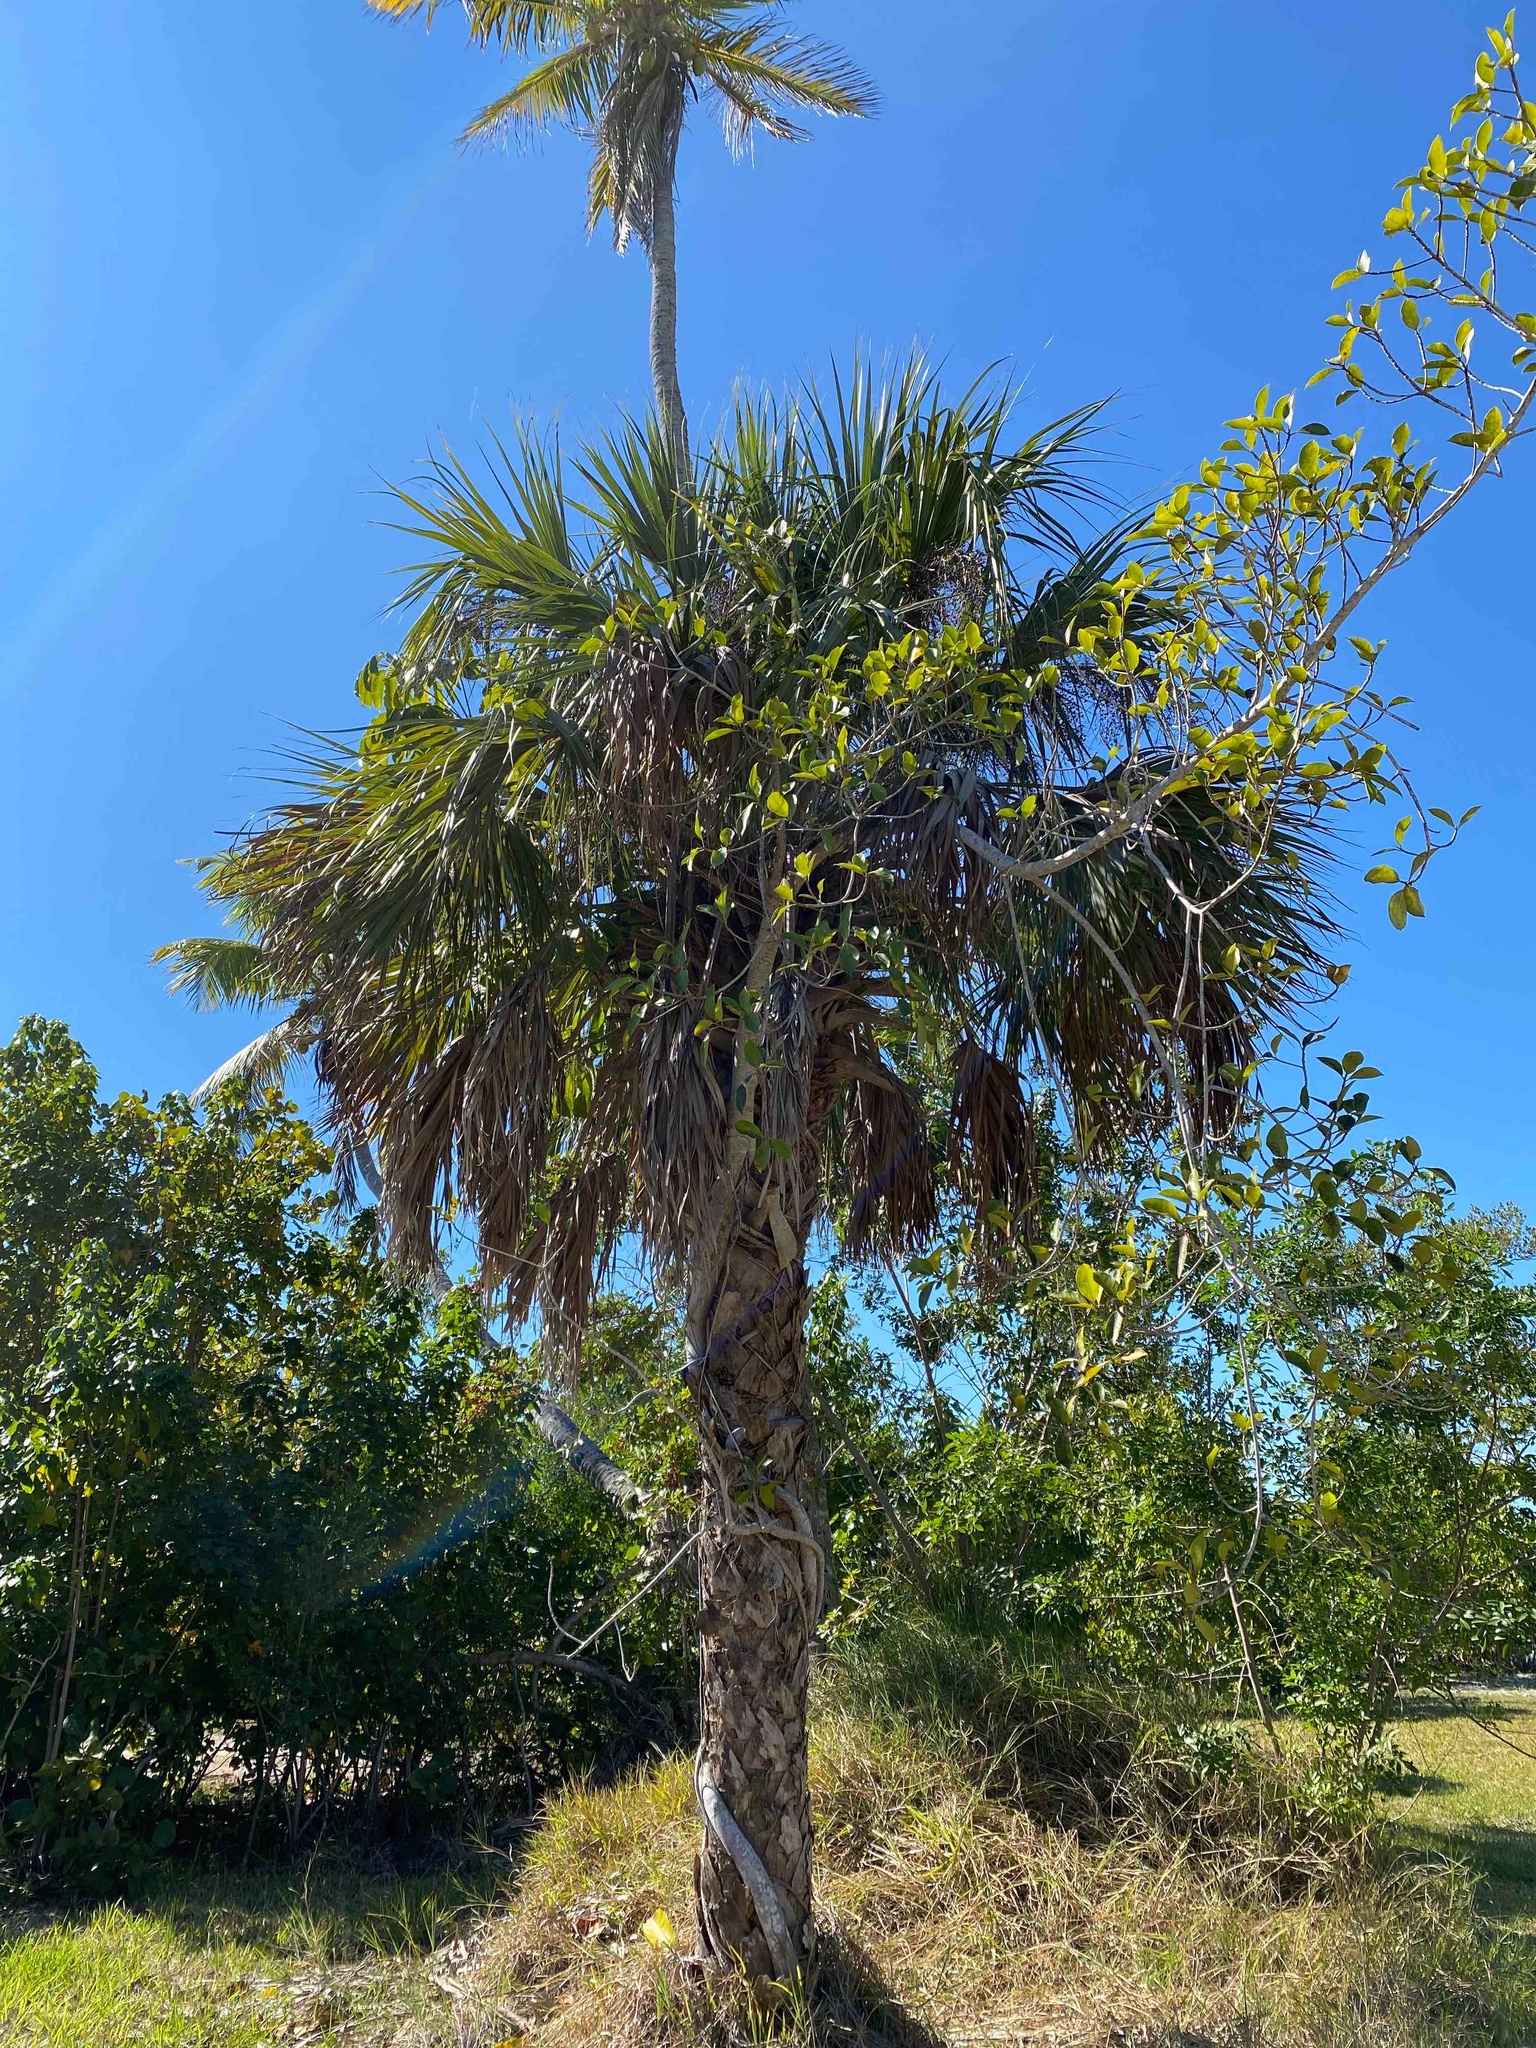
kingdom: Plantae
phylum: Tracheophyta
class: Liliopsida
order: Arecales
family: Arecaceae
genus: Sabal
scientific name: Sabal palmetto
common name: Blue palmetto
